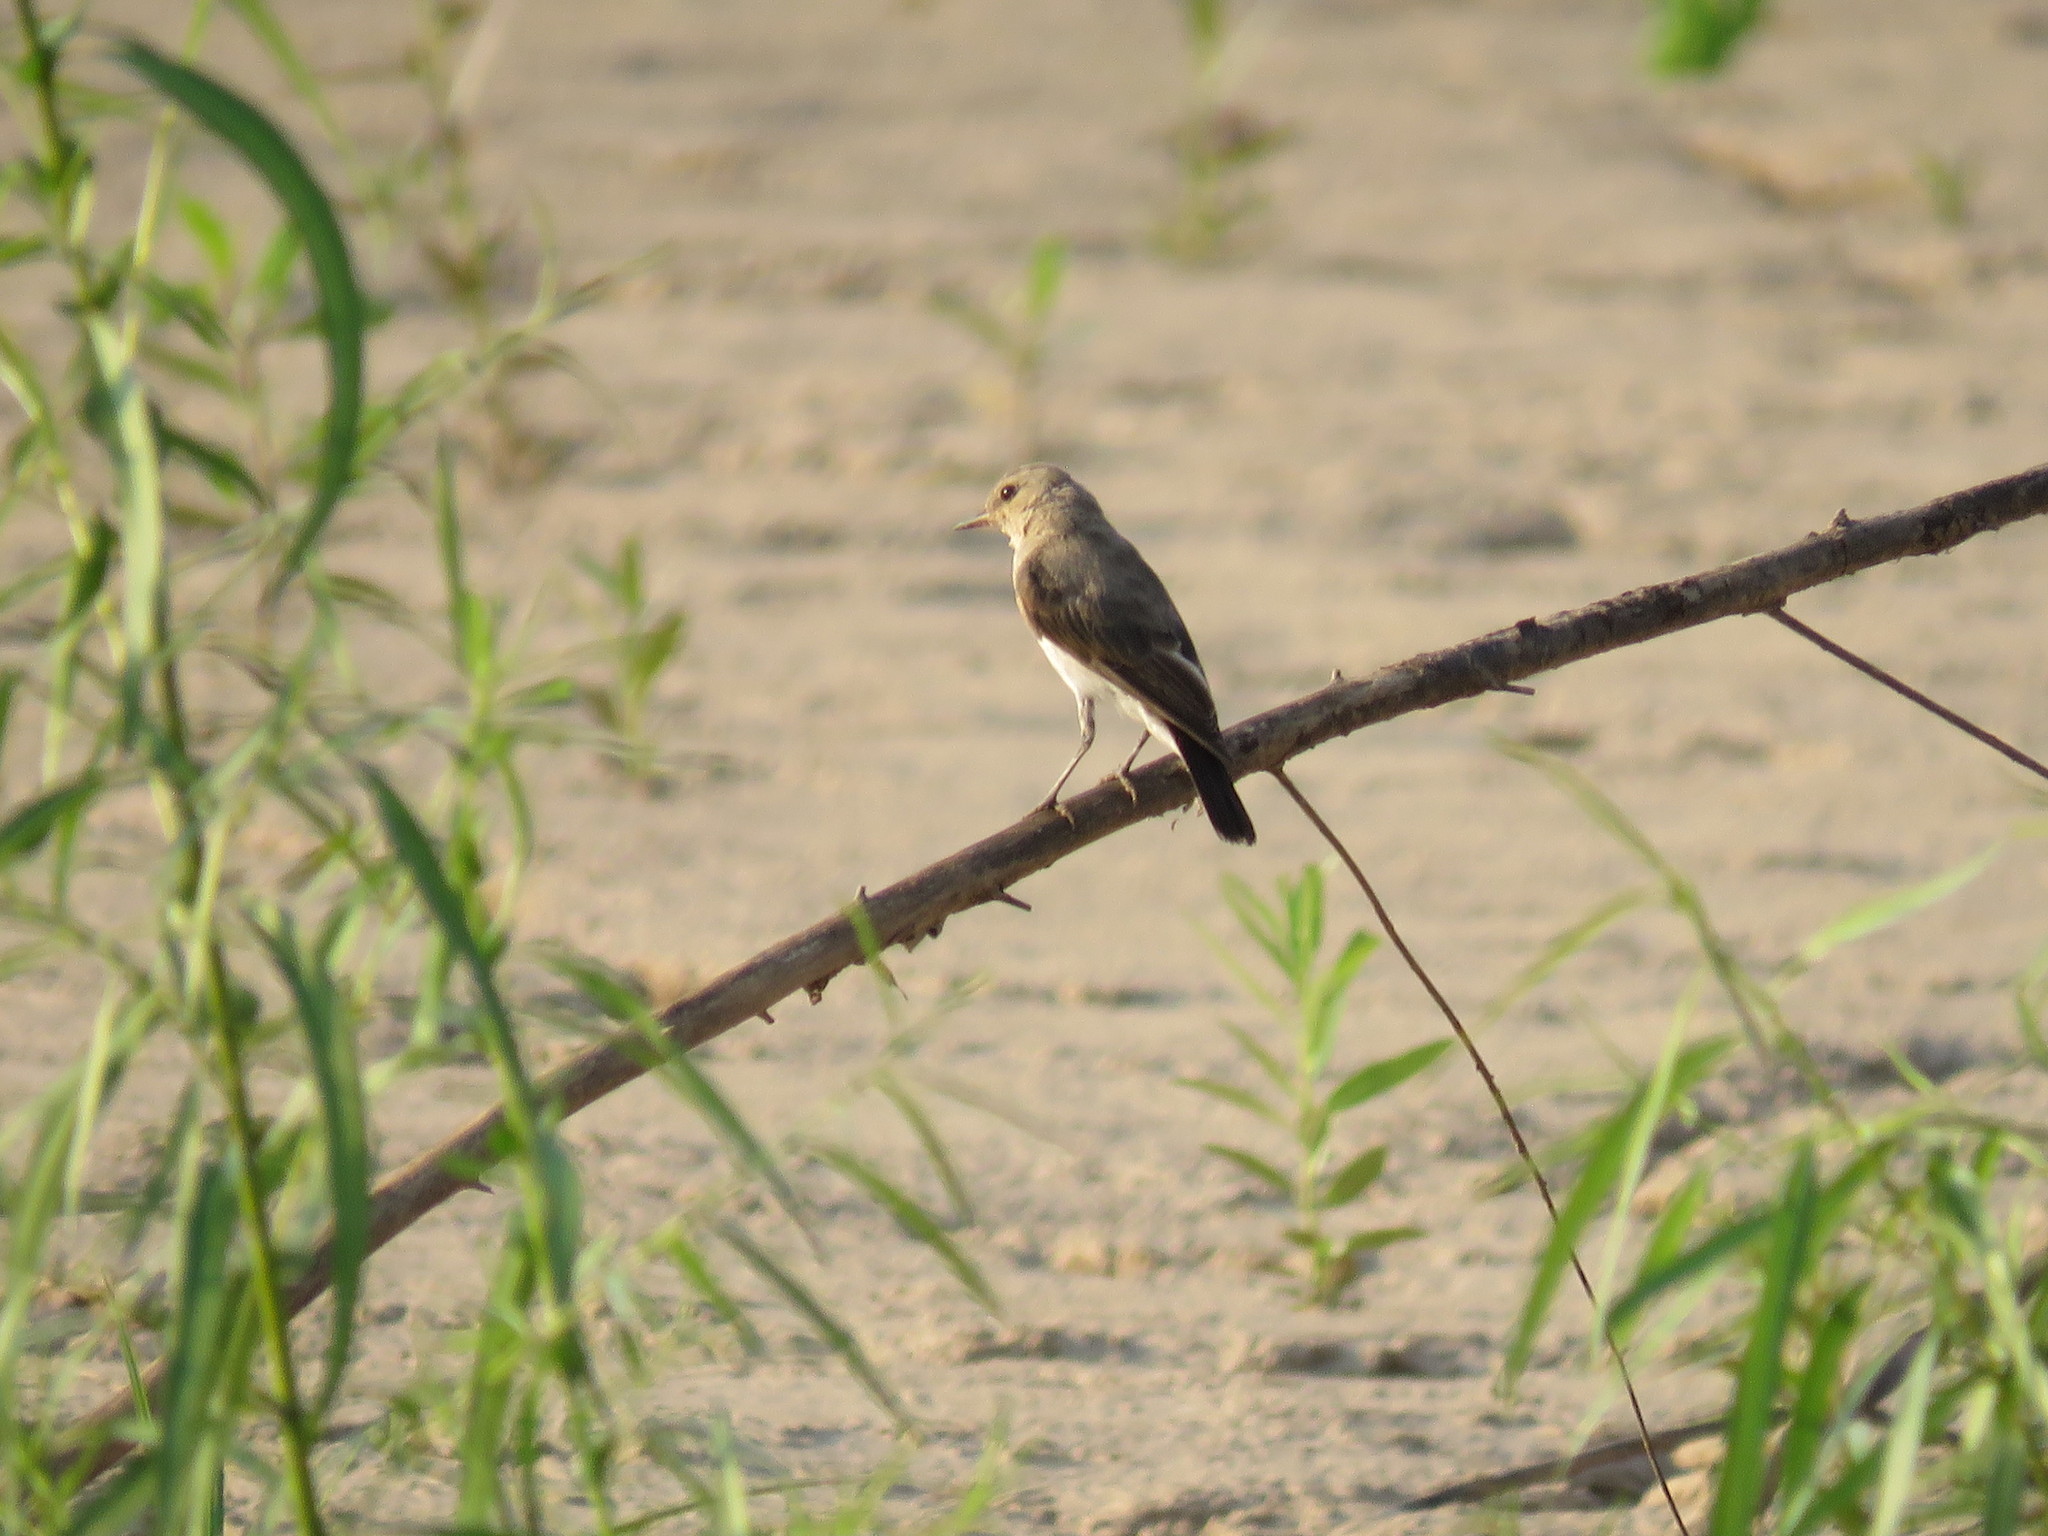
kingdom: Animalia
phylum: Chordata
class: Aves
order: Passeriformes
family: Tyrannidae
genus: Muscisaxicola
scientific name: Muscisaxicola fluviatilis
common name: Little ground tyrant
